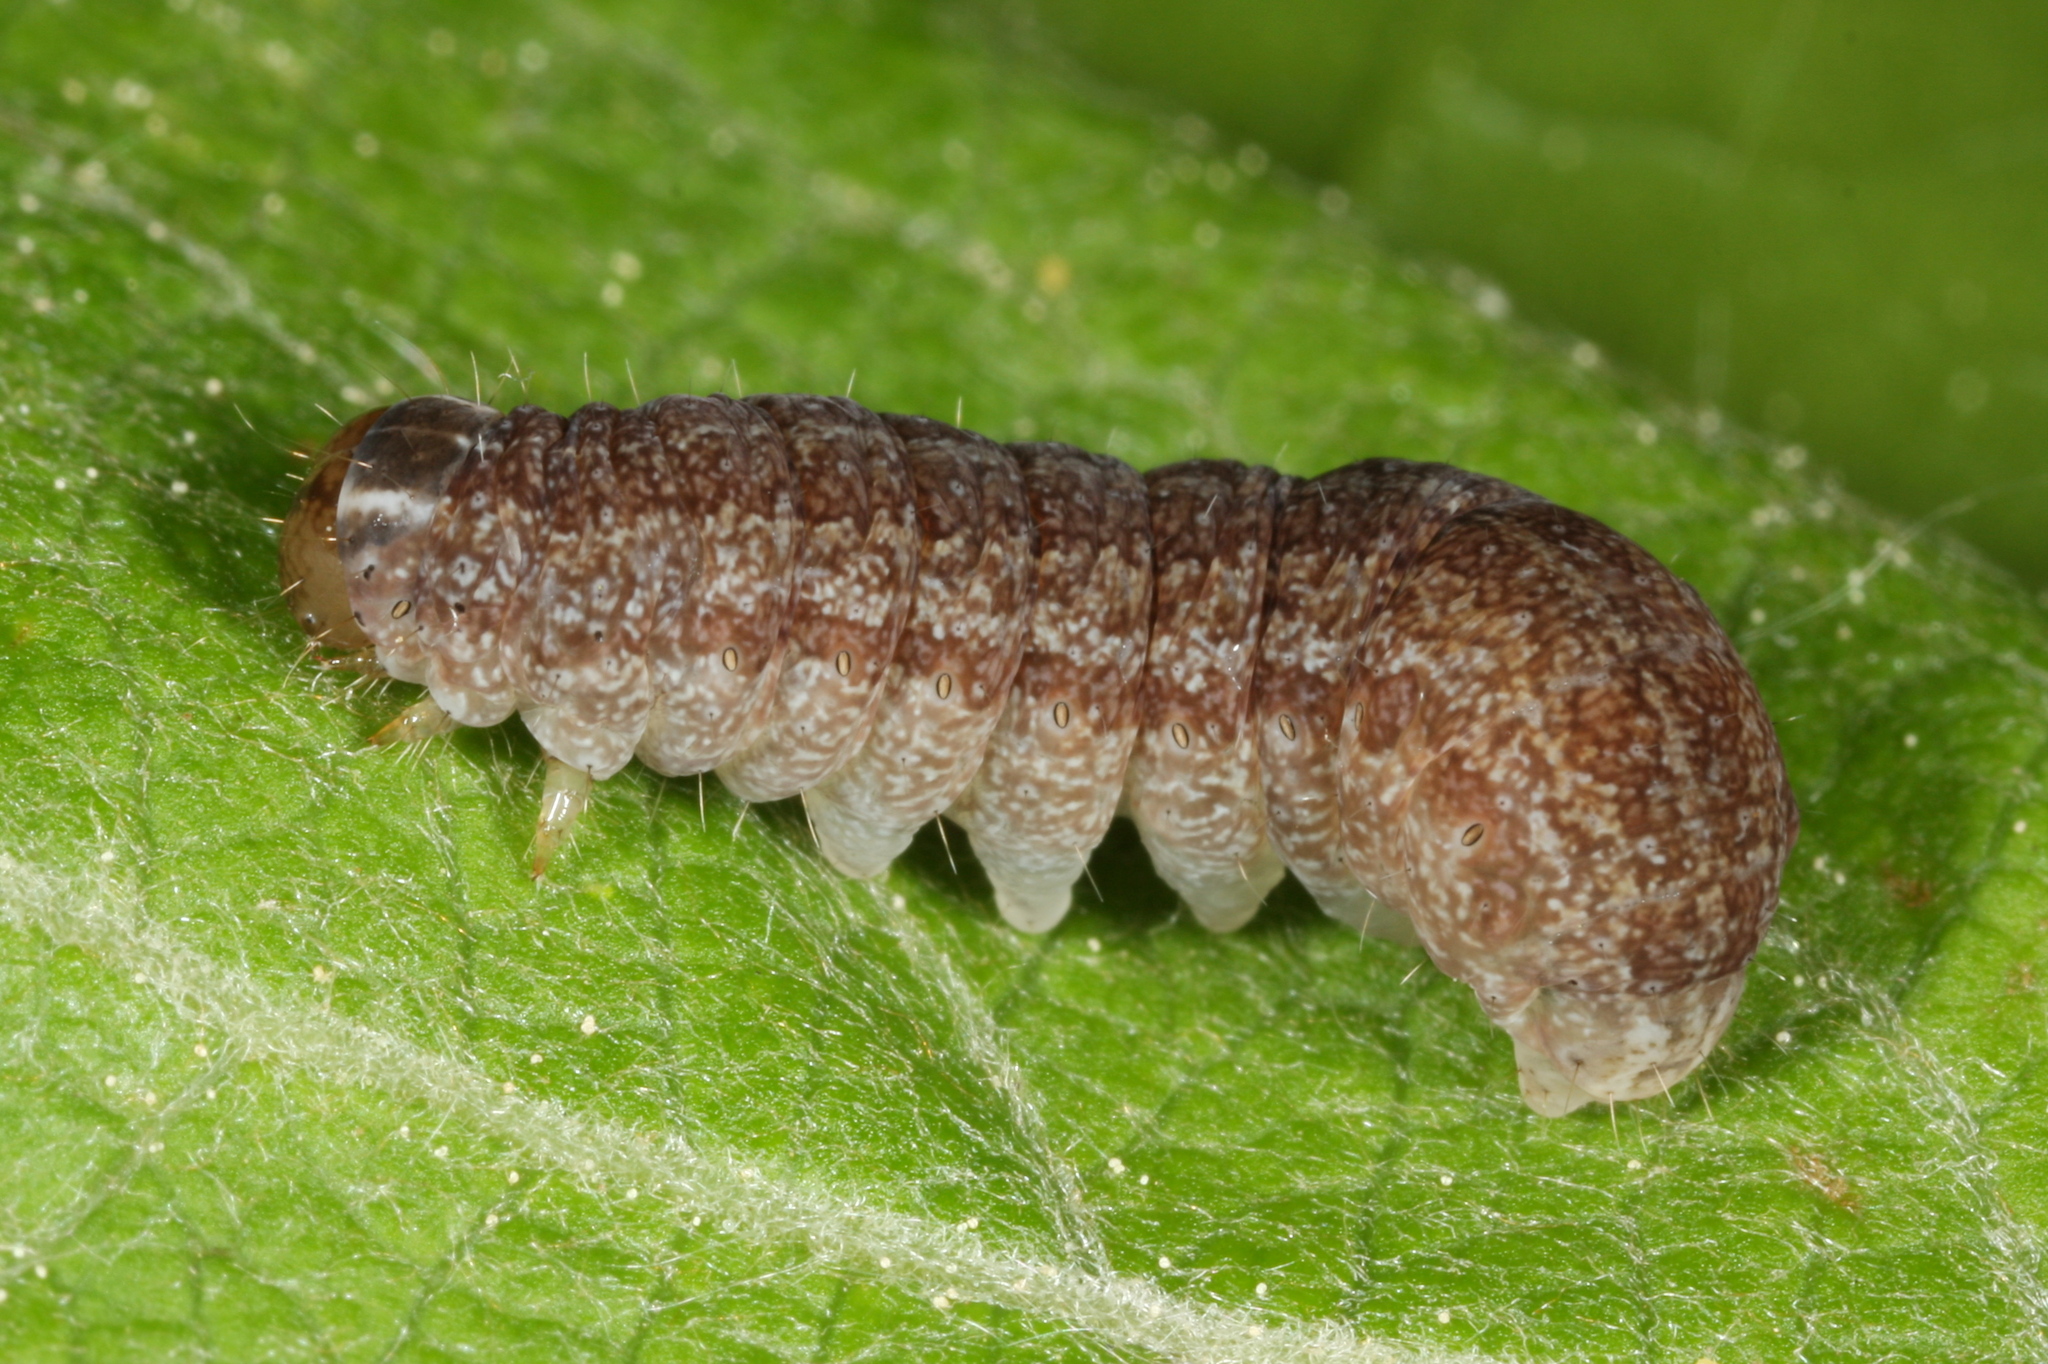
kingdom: Animalia
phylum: Arthropoda
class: Insecta
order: Lepidoptera
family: Noctuidae
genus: Xanthia
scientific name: Xanthia togata
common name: Pink-barred sallow
